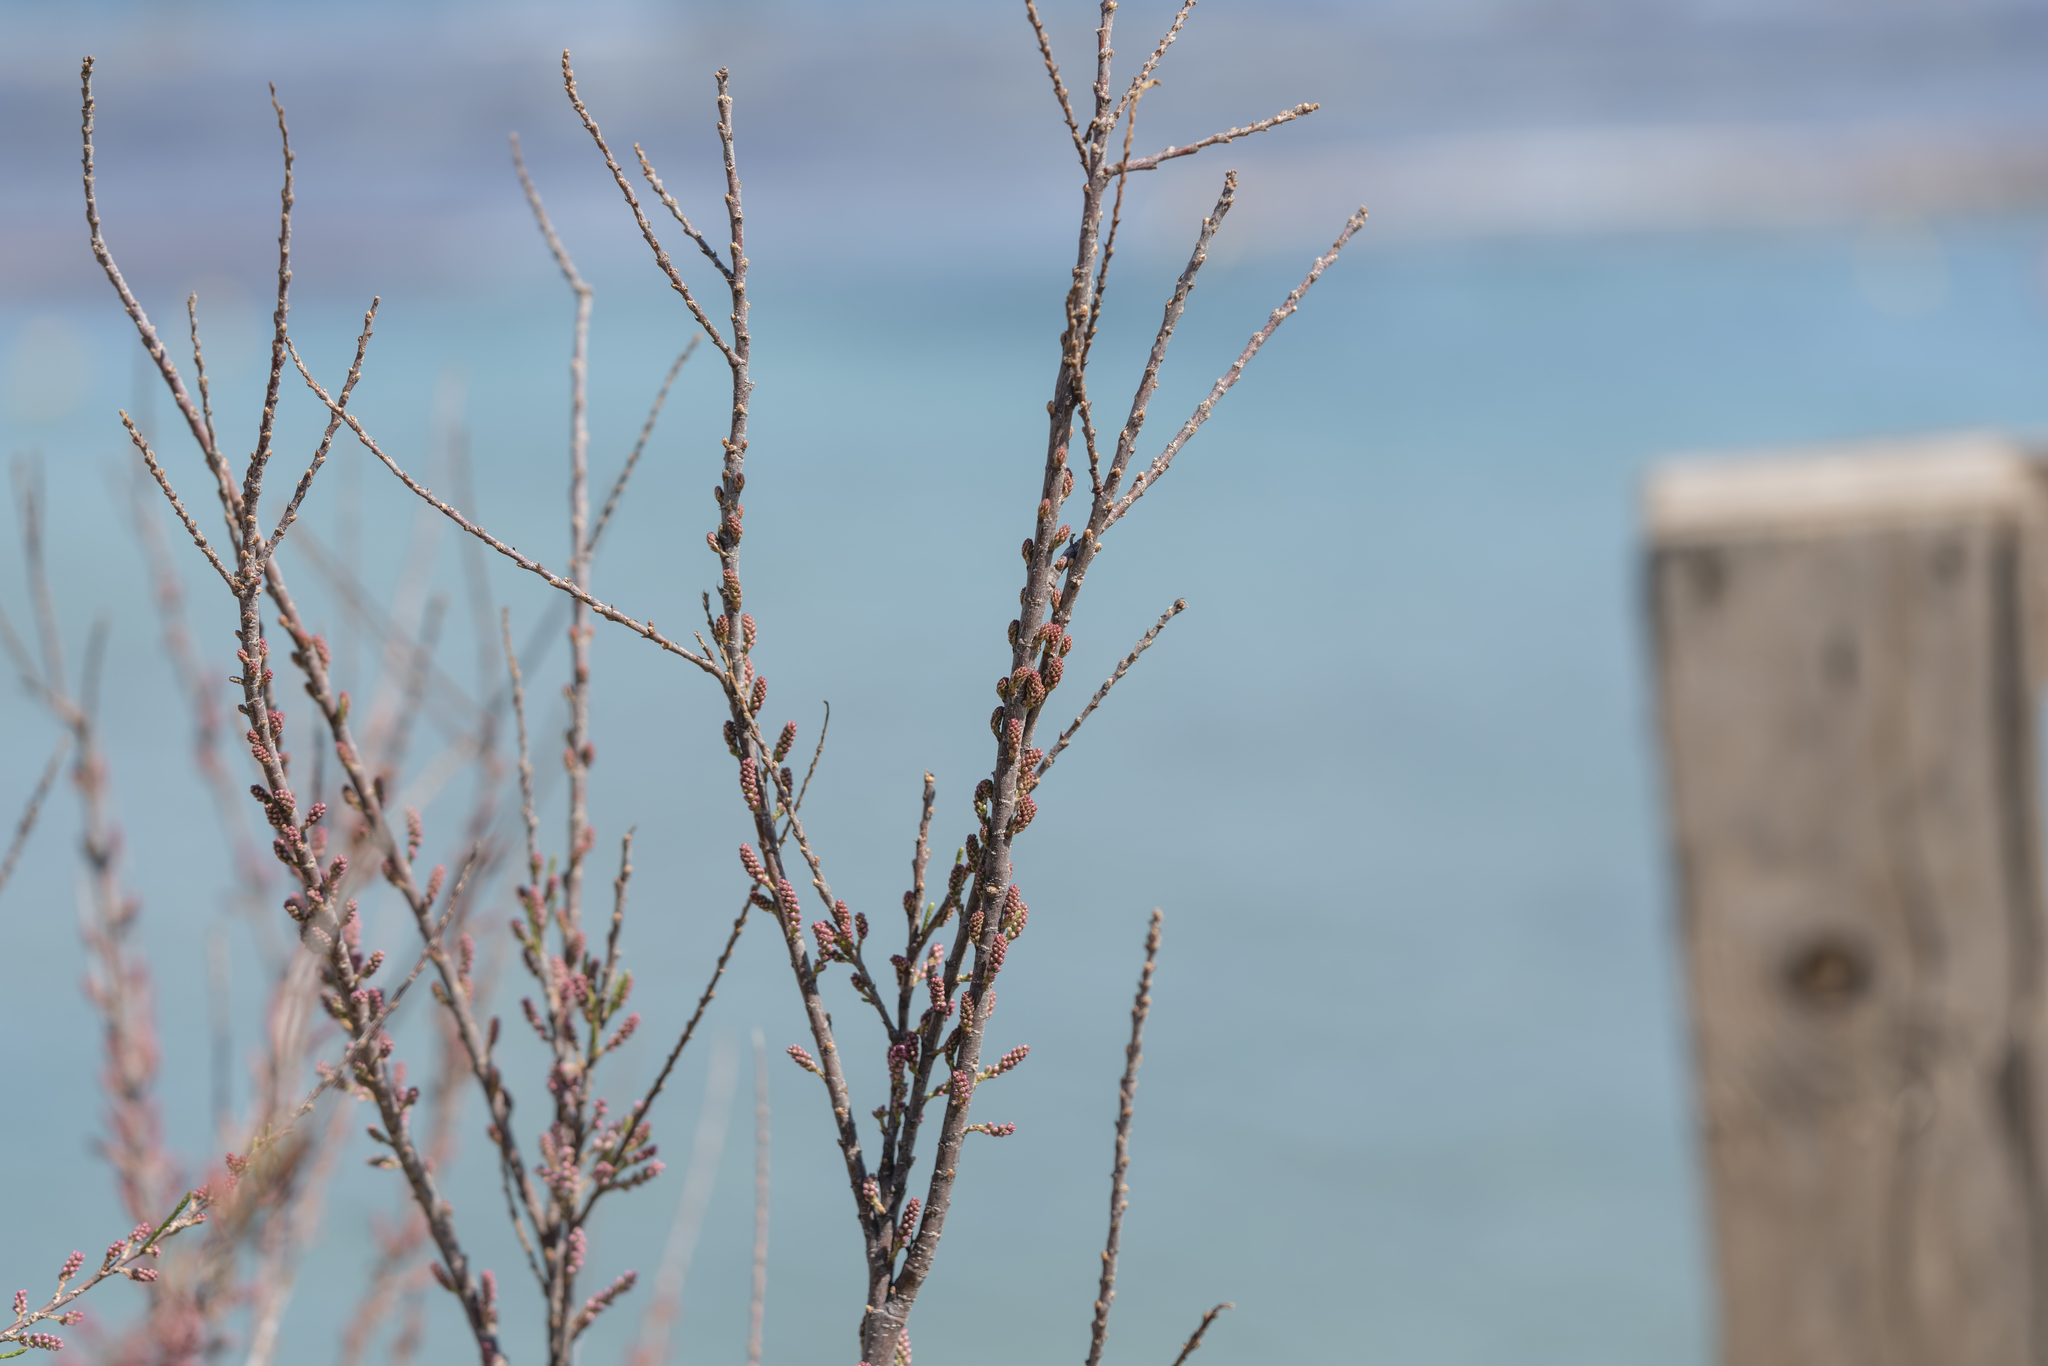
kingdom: Plantae
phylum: Tracheophyta
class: Magnoliopsida
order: Caryophyllales
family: Tamaricaceae
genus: Tamarix
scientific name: Tamarix
